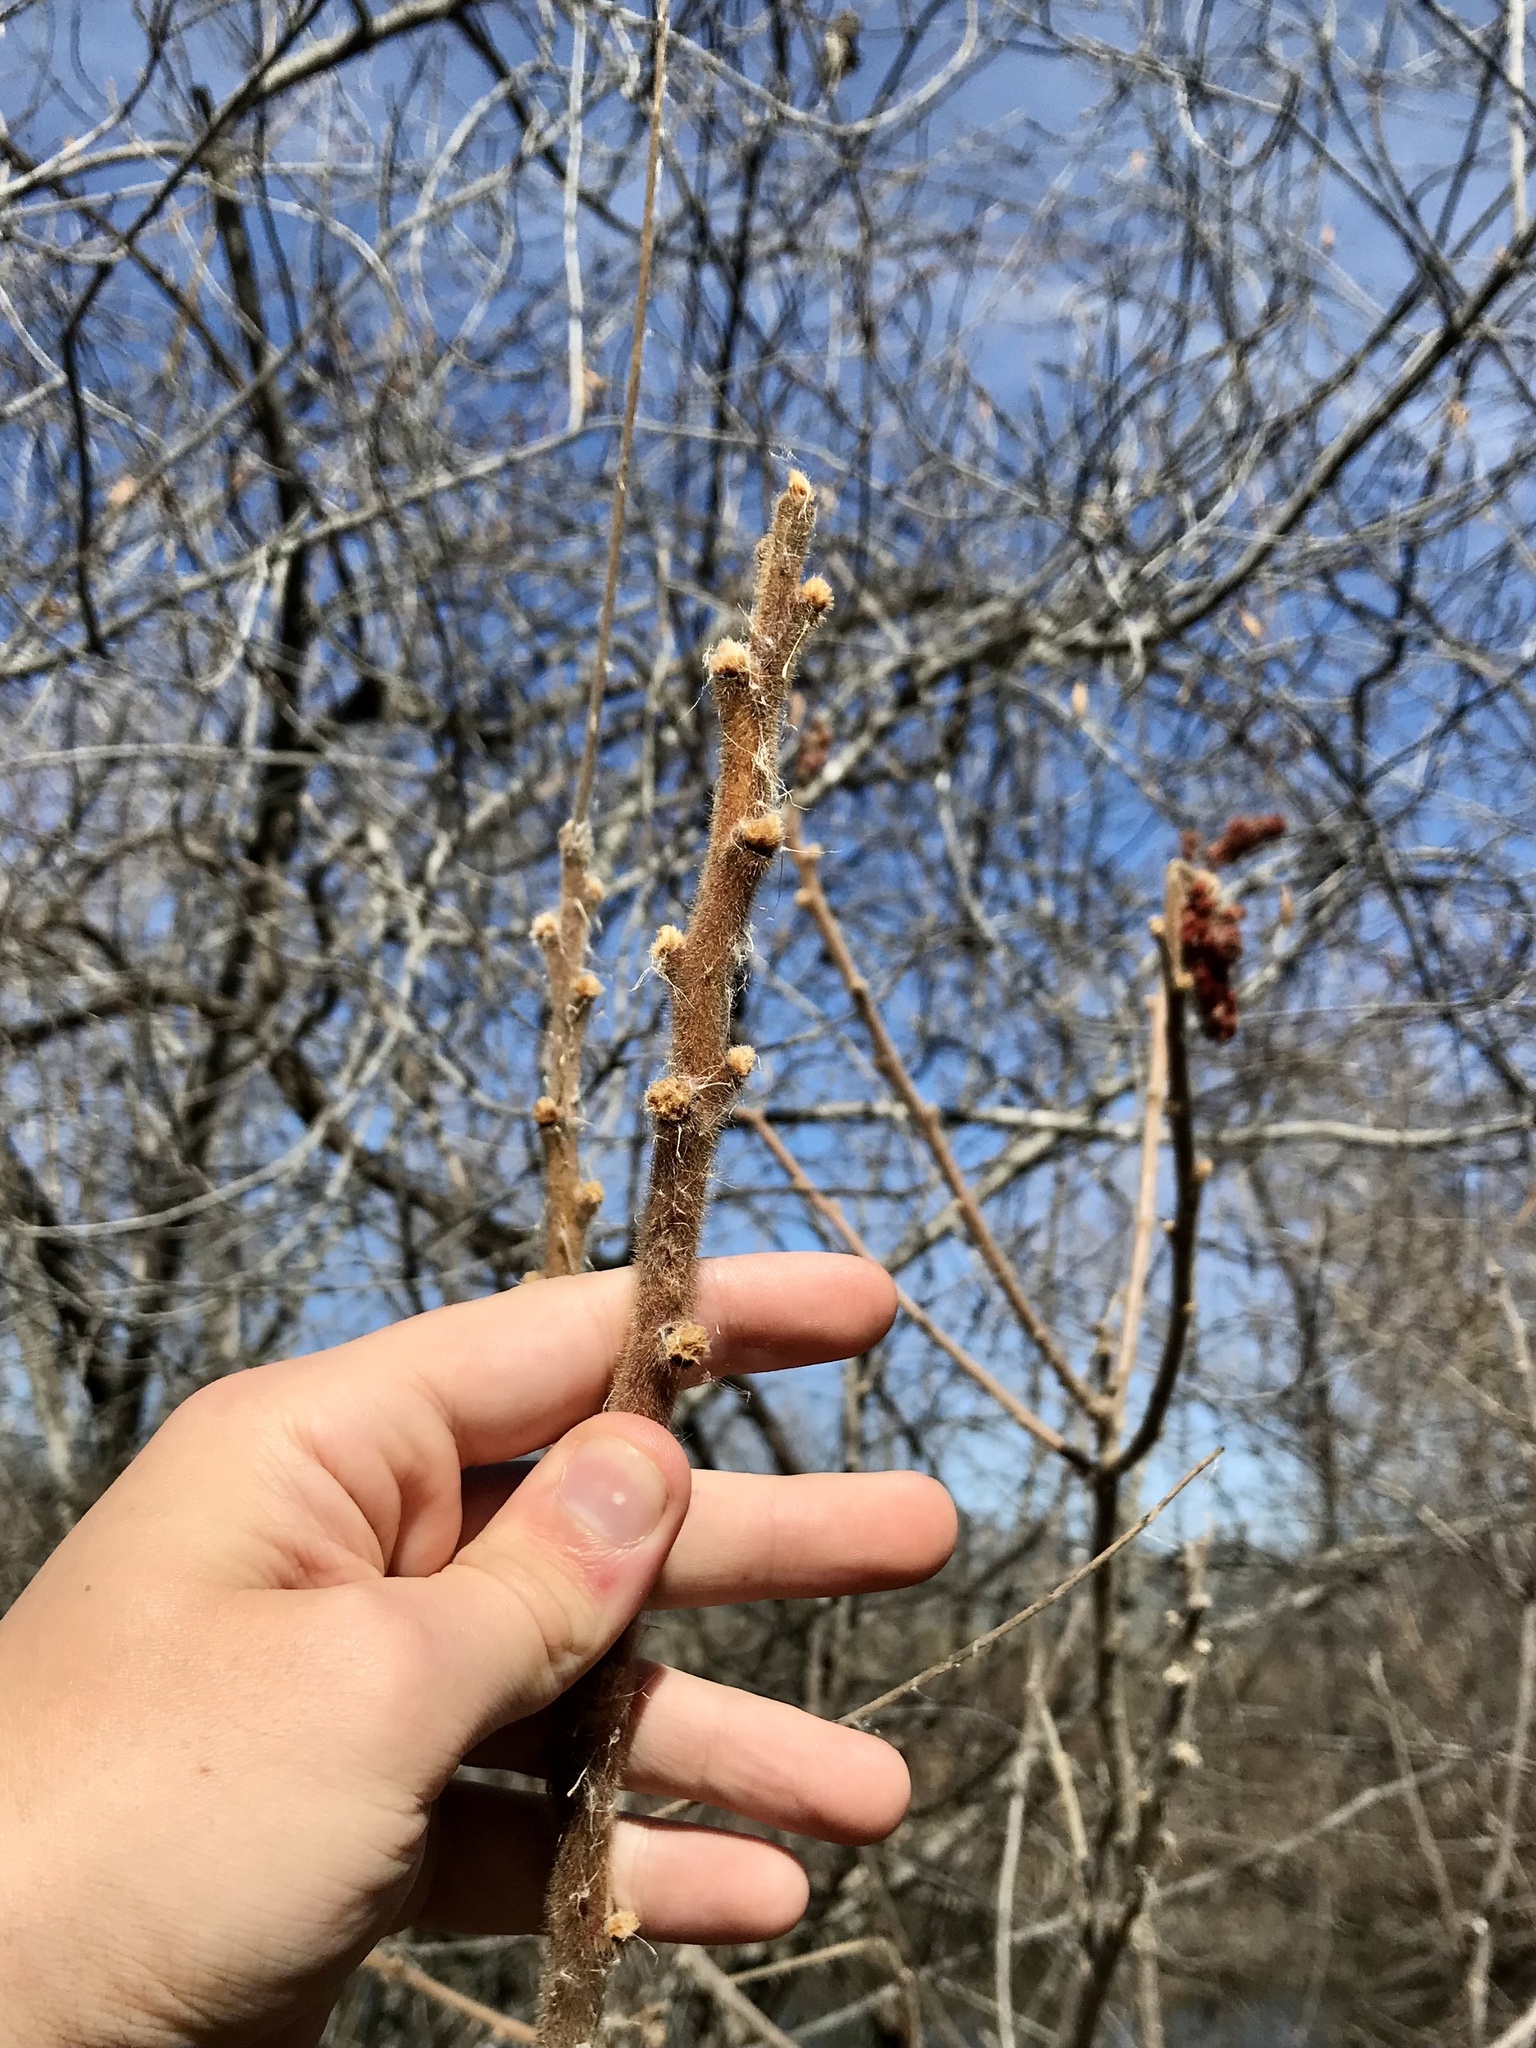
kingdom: Plantae
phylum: Tracheophyta
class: Magnoliopsida
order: Sapindales
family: Anacardiaceae
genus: Rhus
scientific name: Rhus typhina
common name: Staghorn sumac
